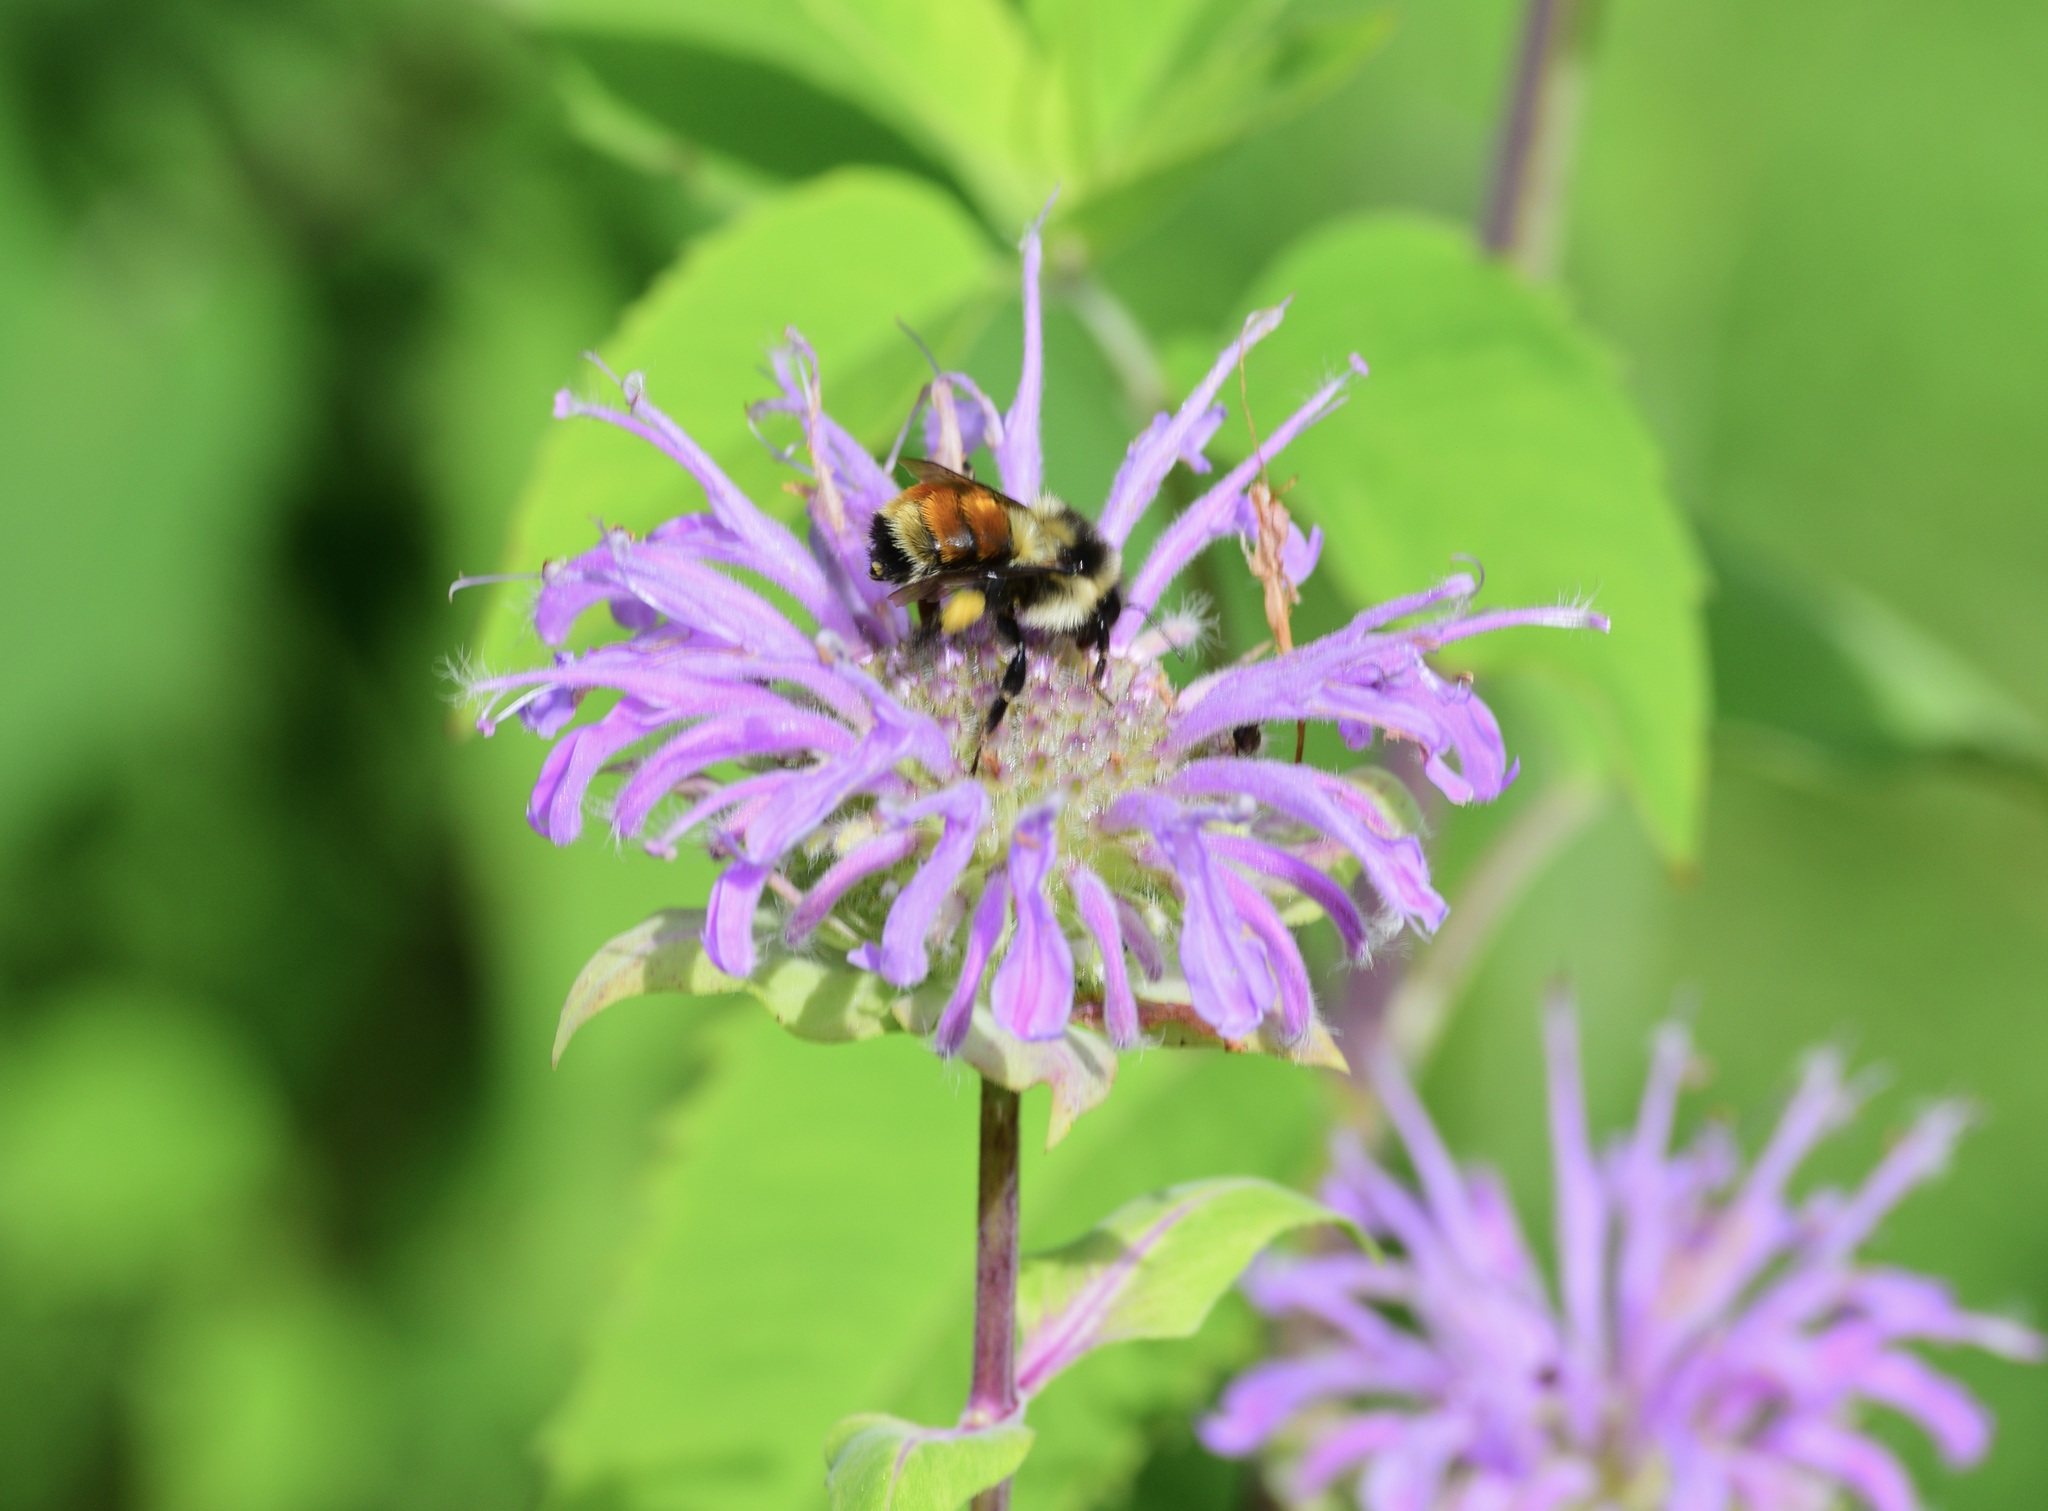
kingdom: Animalia
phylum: Arthropoda
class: Insecta
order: Hymenoptera
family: Apidae
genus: Bombus
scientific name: Bombus ternarius
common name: Tri-colored bumble bee
